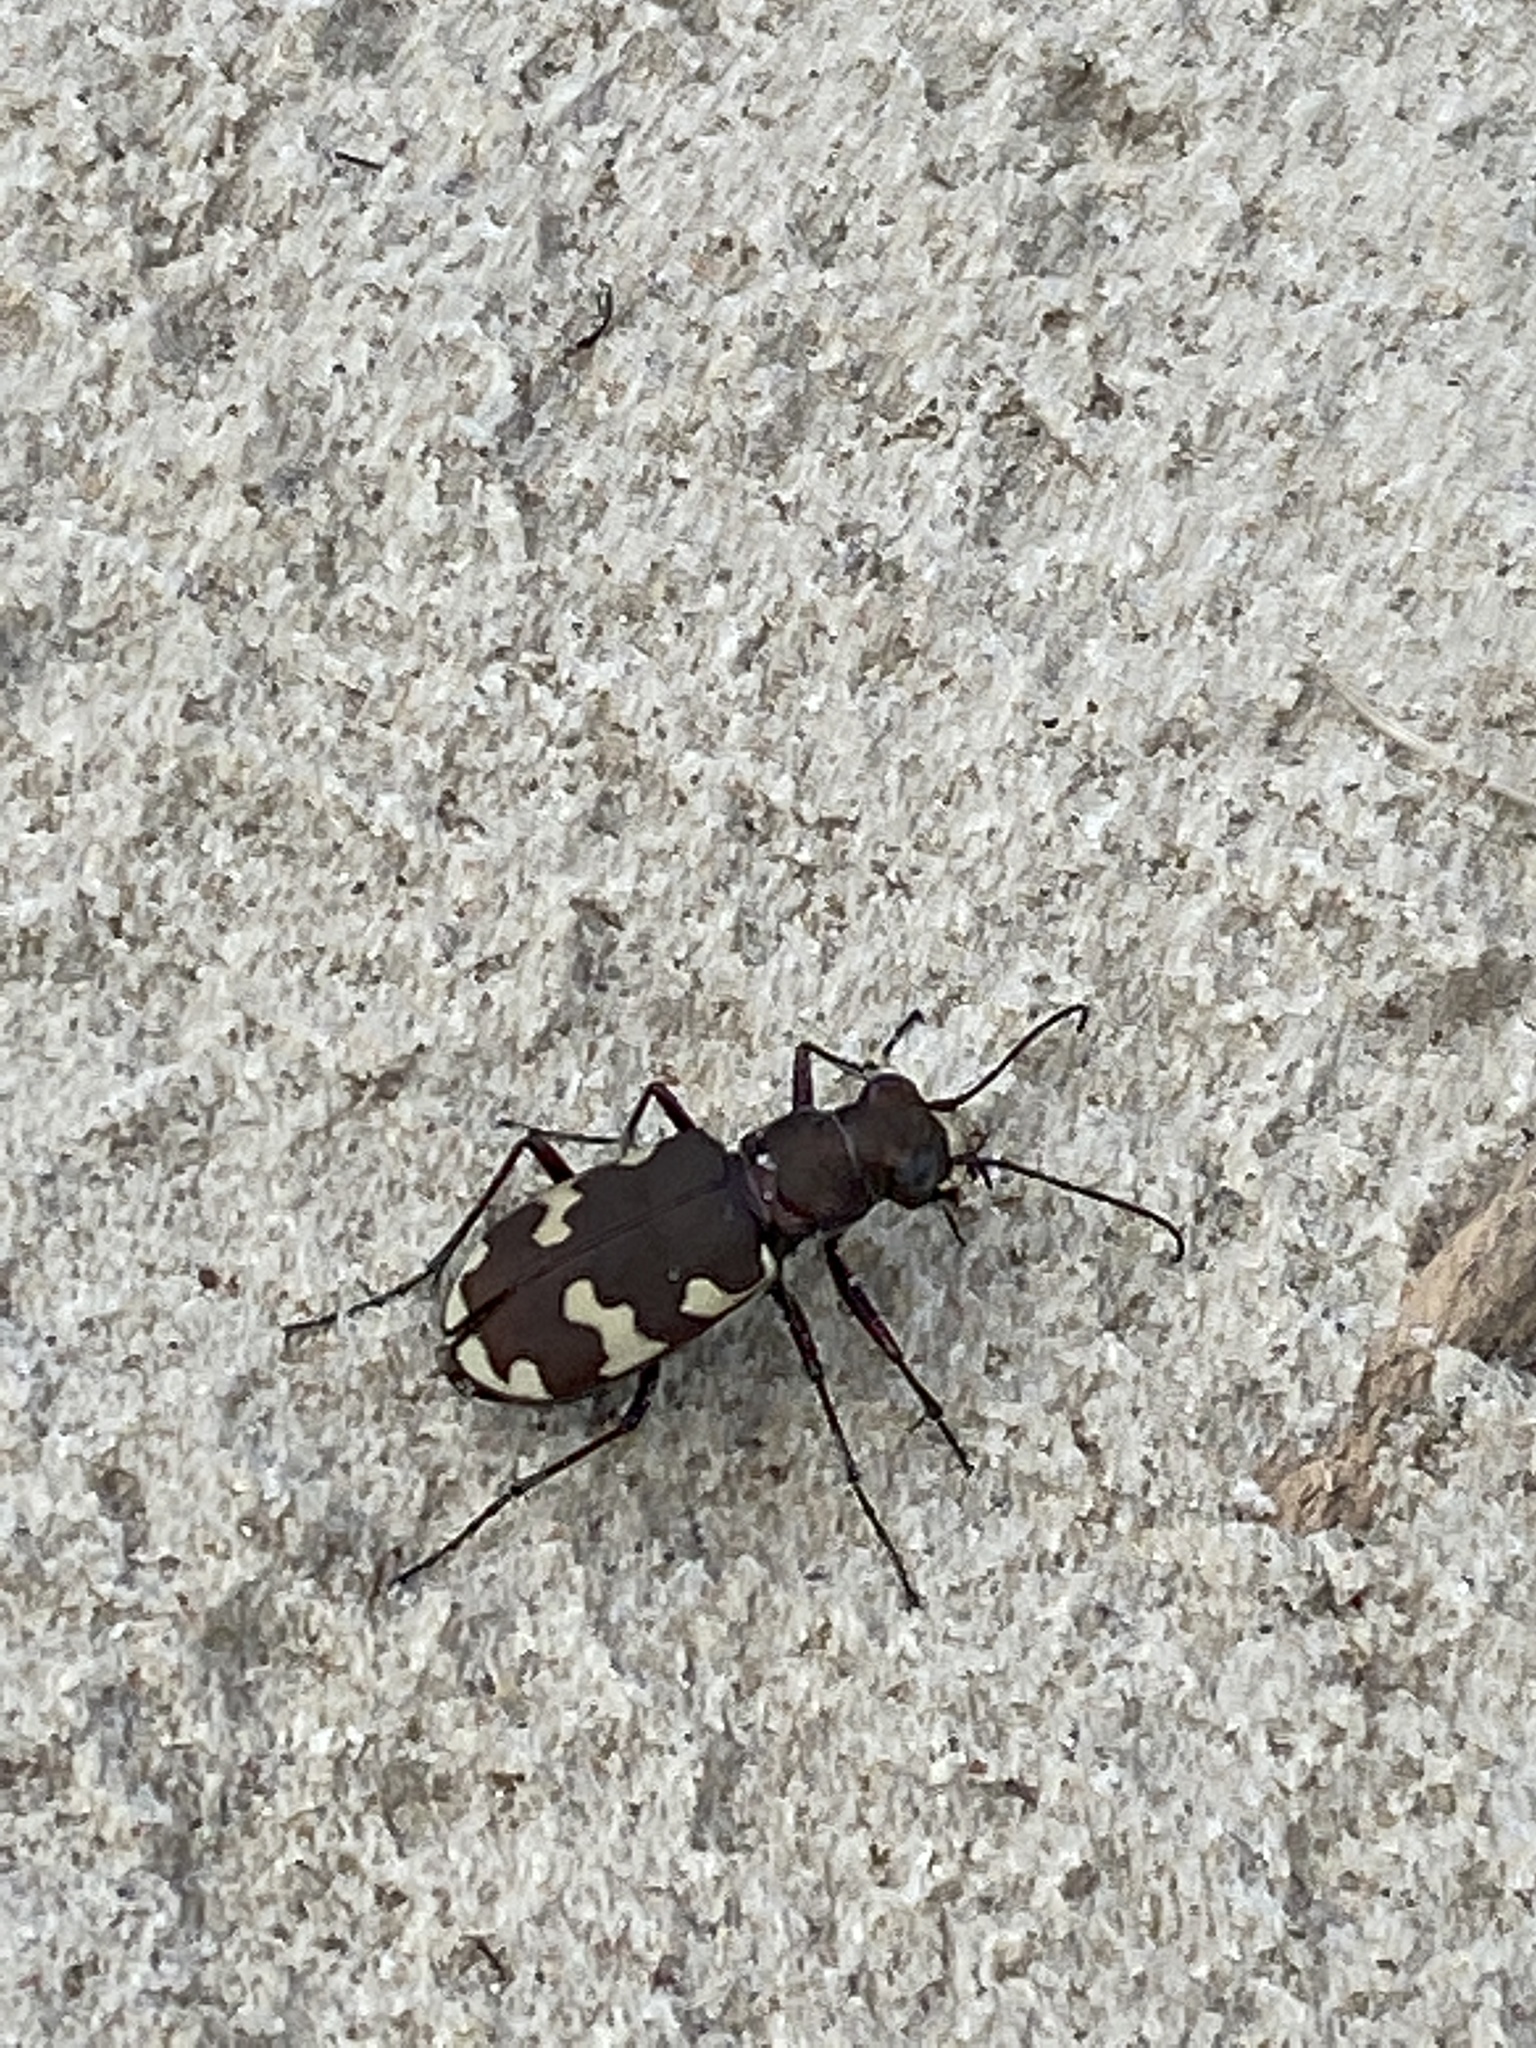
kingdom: Animalia
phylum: Arthropoda
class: Insecta
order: Coleoptera
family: Carabidae
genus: Cicindela
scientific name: Cicindela hybrida
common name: Northern dune tiger beetle
